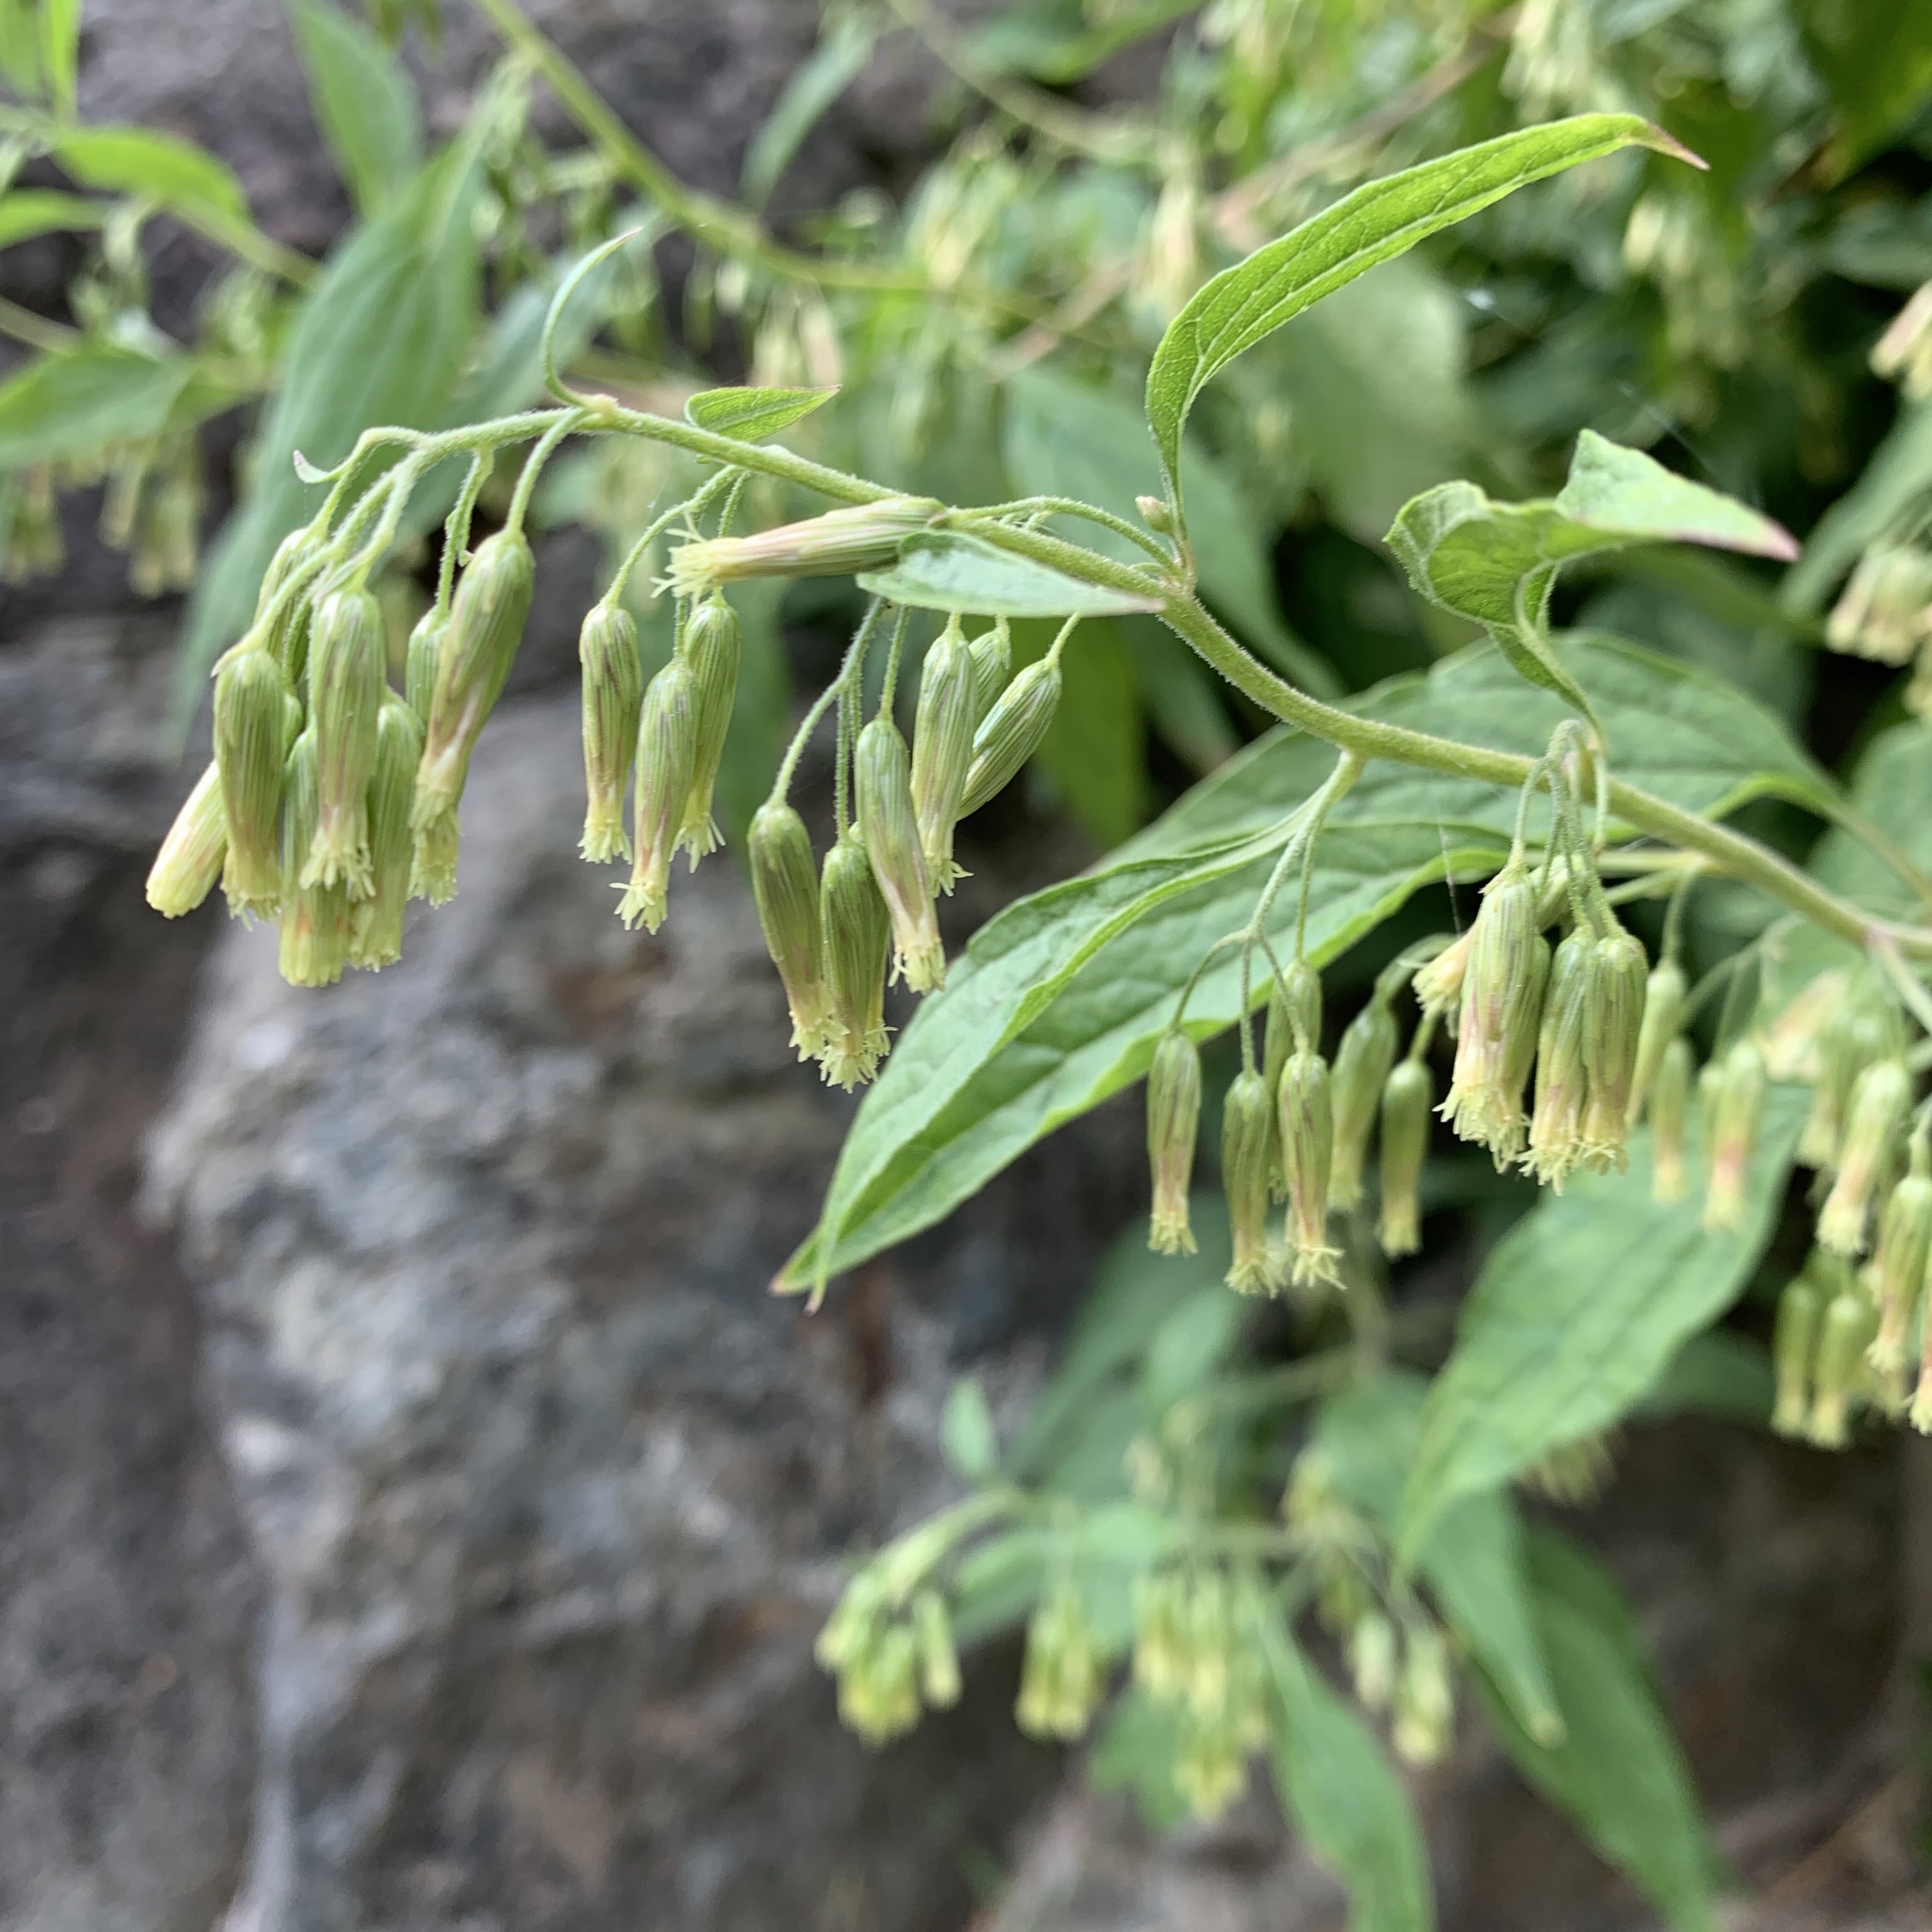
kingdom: Plantae
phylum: Tracheophyta
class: Magnoliopsida
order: Asterales
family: Asteraceae
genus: Brickellia
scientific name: Brickellia rusbyi
